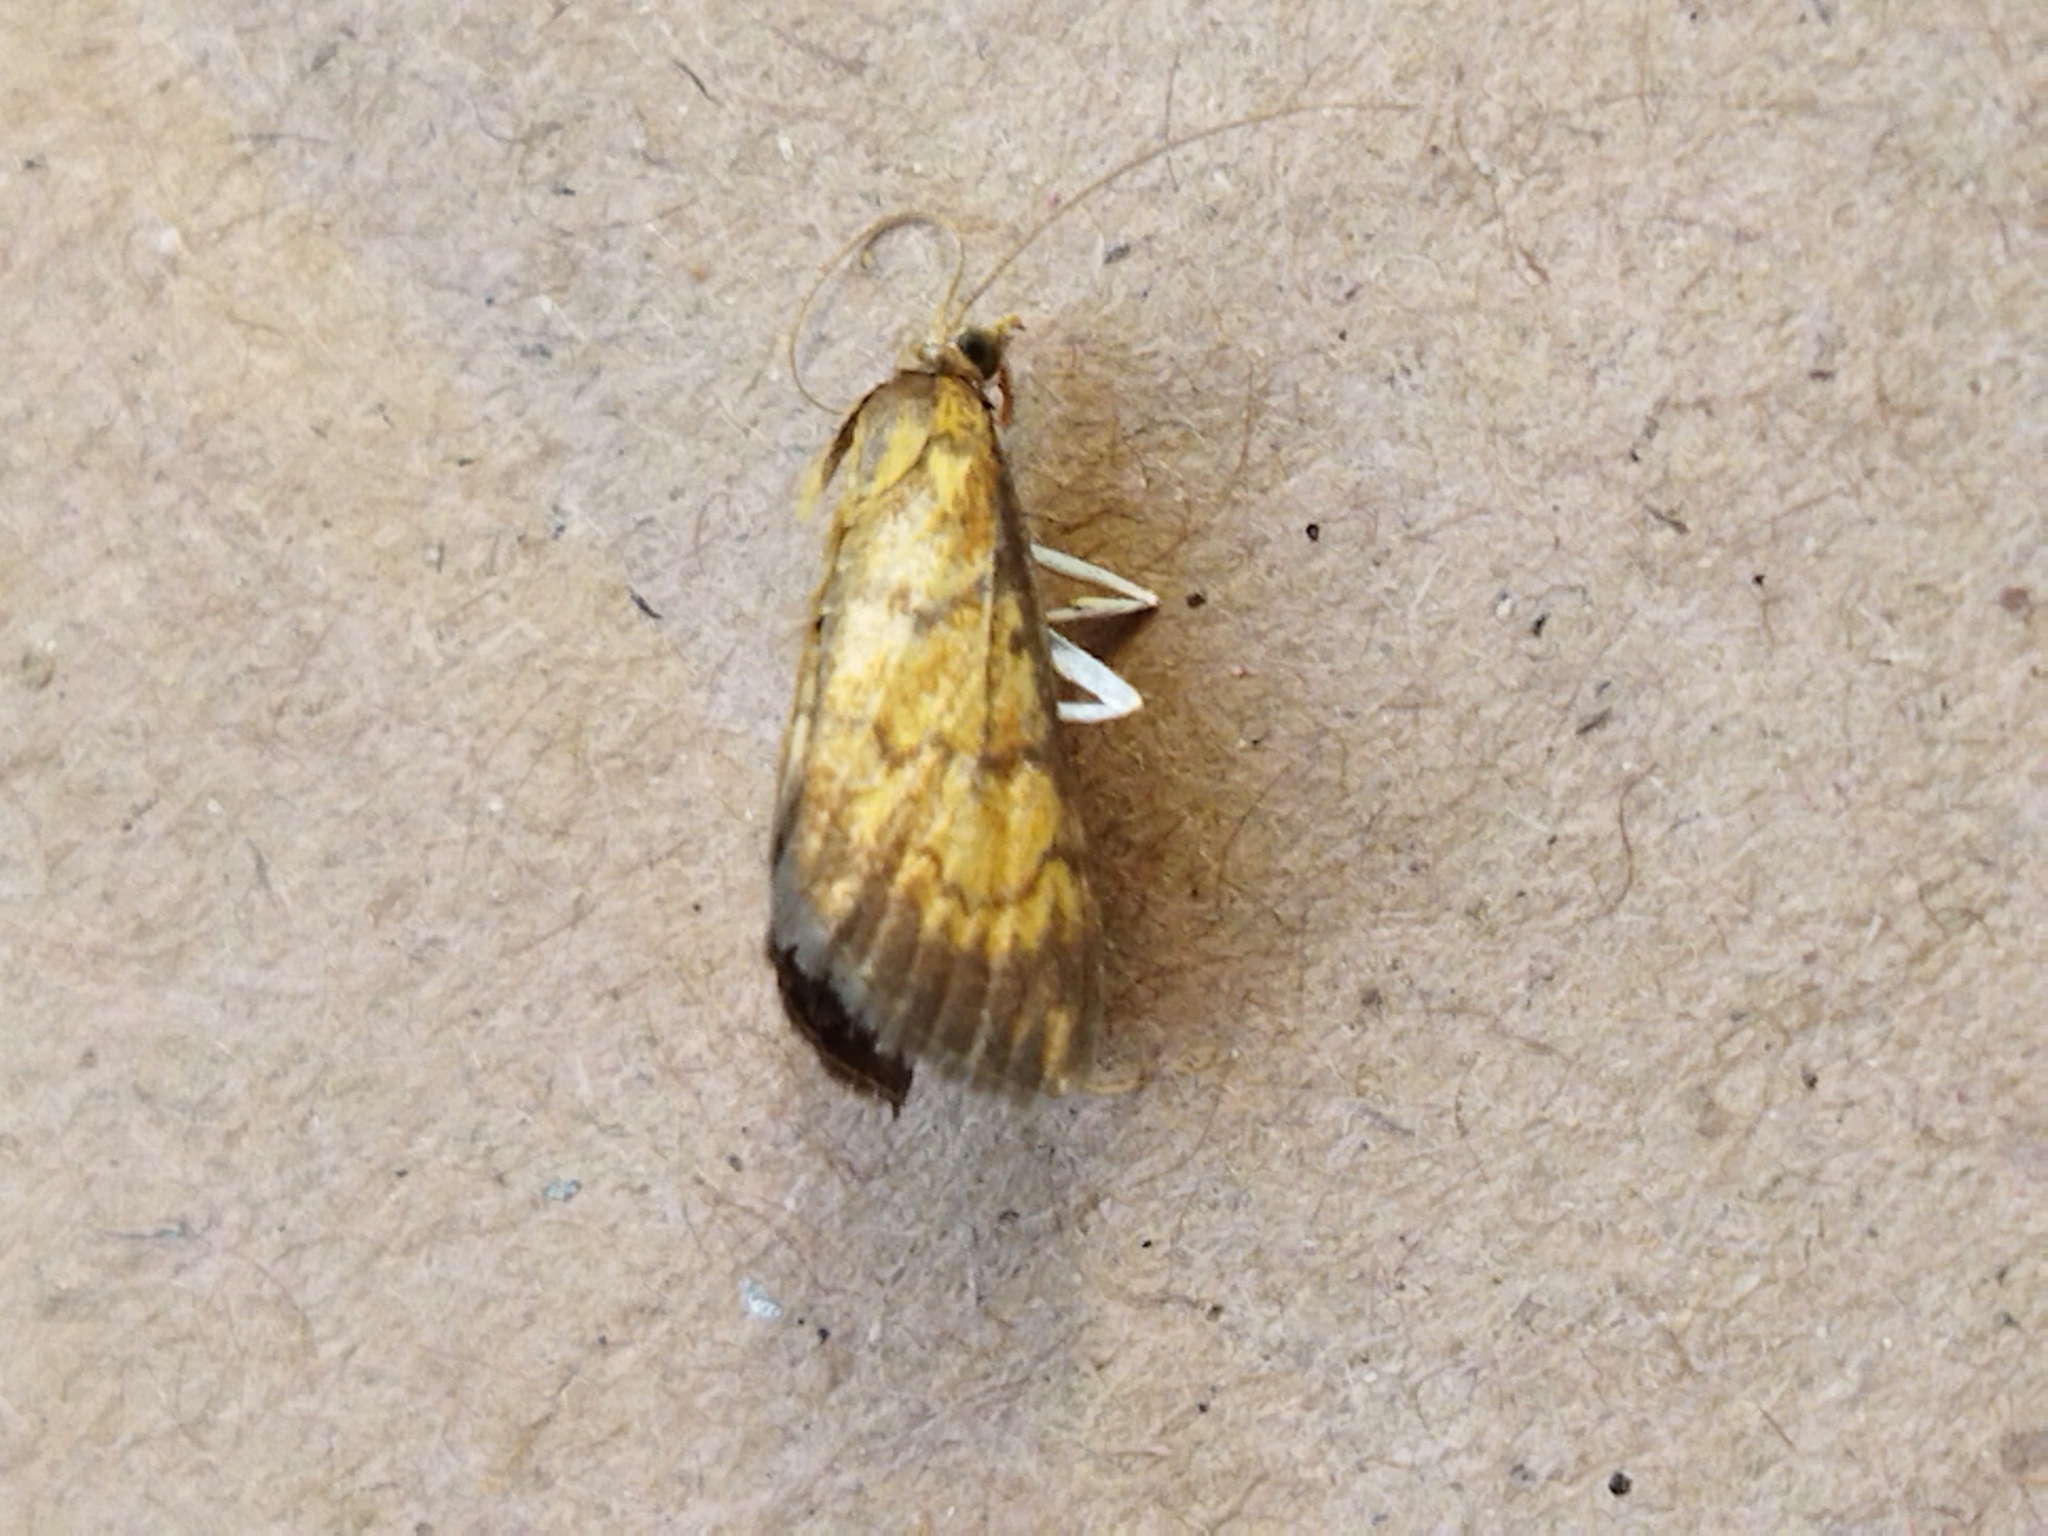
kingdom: Animalia
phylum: Arthropoda
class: Insecta
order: Lepidoptera
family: Crambidae
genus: Ecpyrrhorrhoe
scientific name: Ecpyrrhorrhoe rubiginalis
